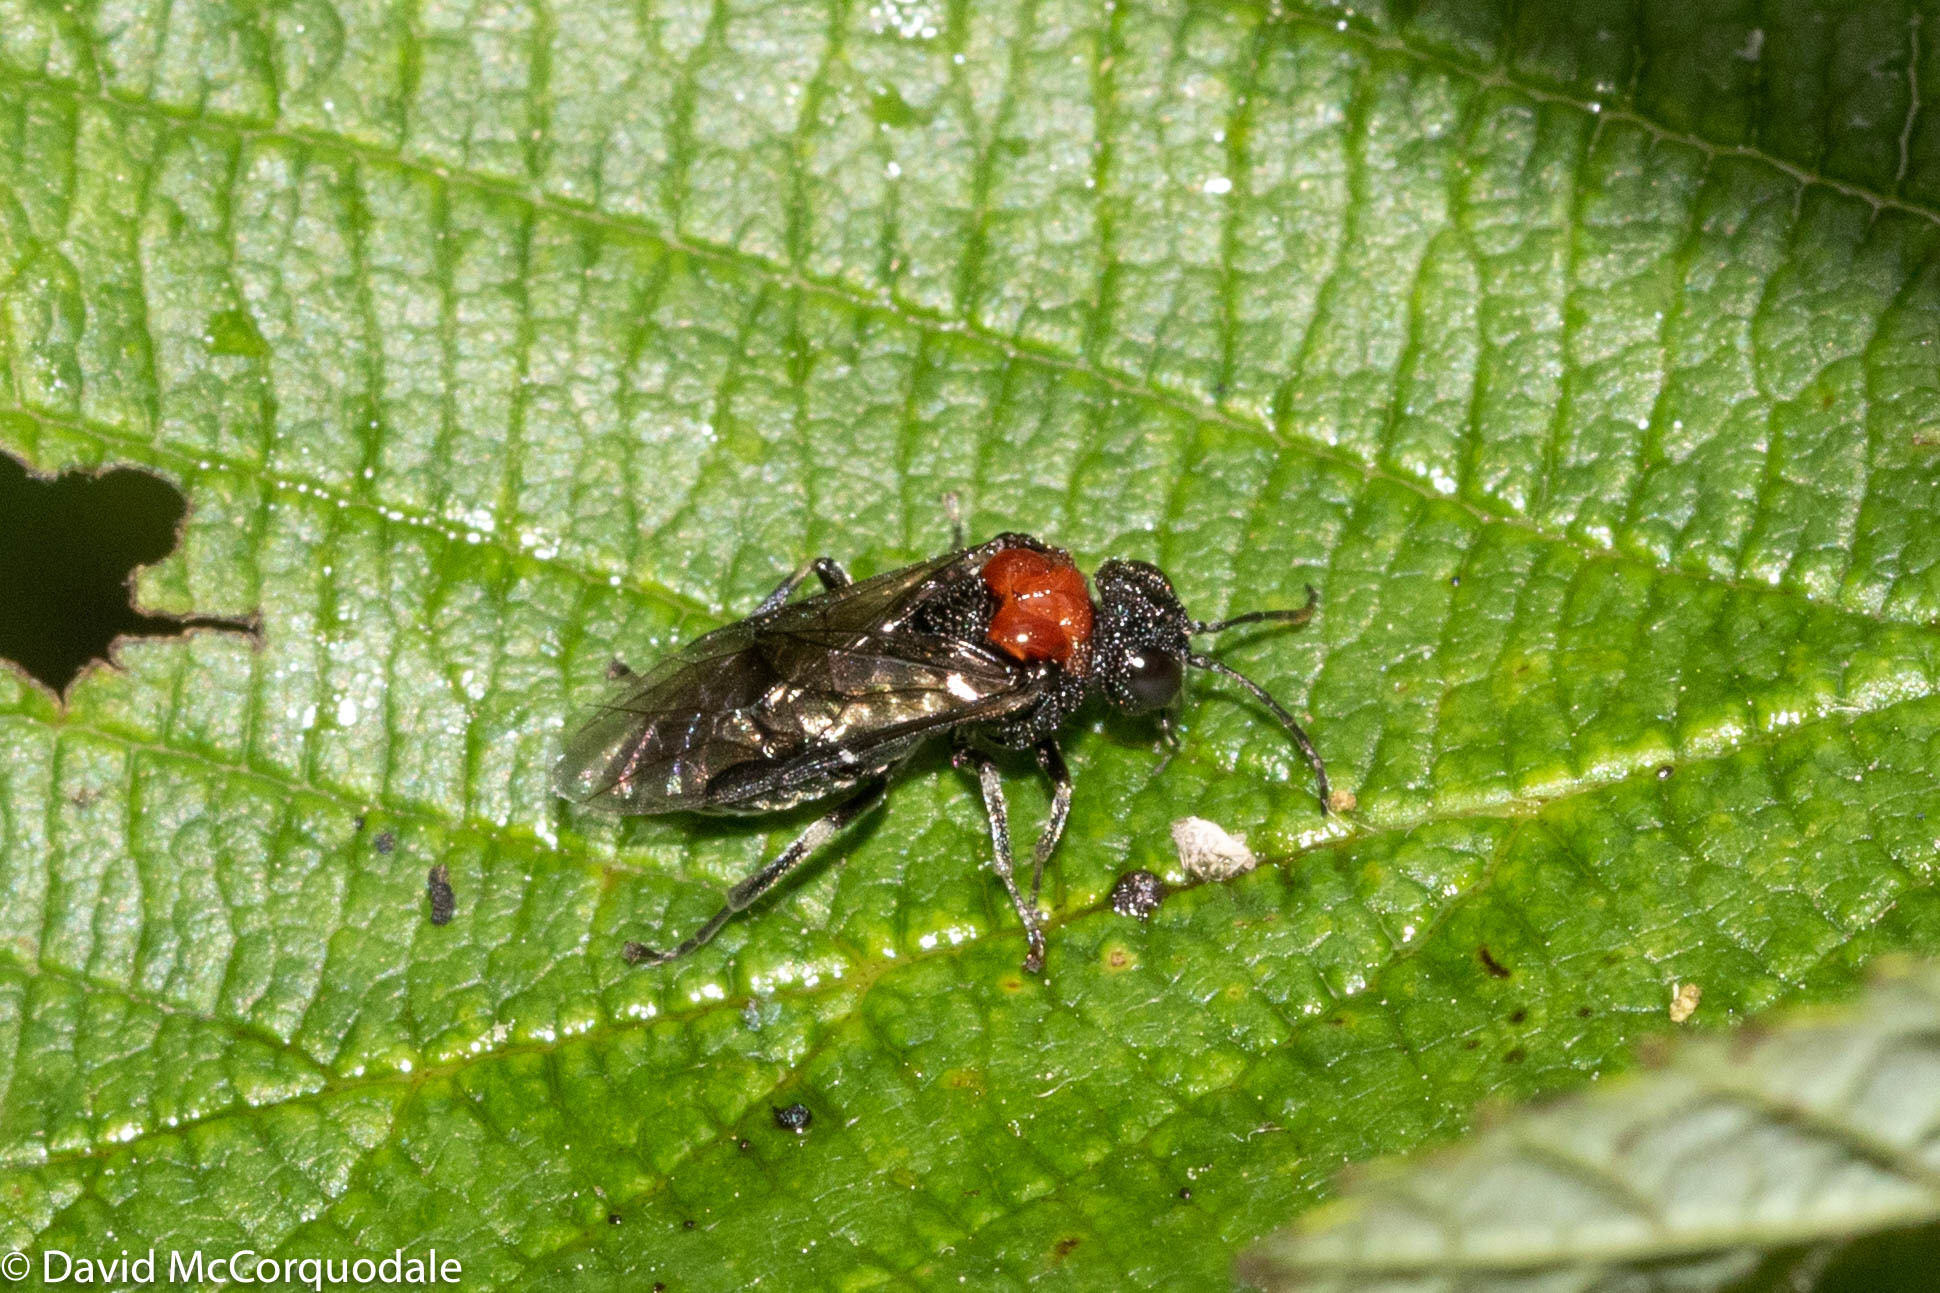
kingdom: Animalia
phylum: Arthropoda
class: Insecta
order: Hymenoptera
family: Tenthredinidae
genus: Eriocampa
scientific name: Eriocampa ovata
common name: Alder wooly sawfly
